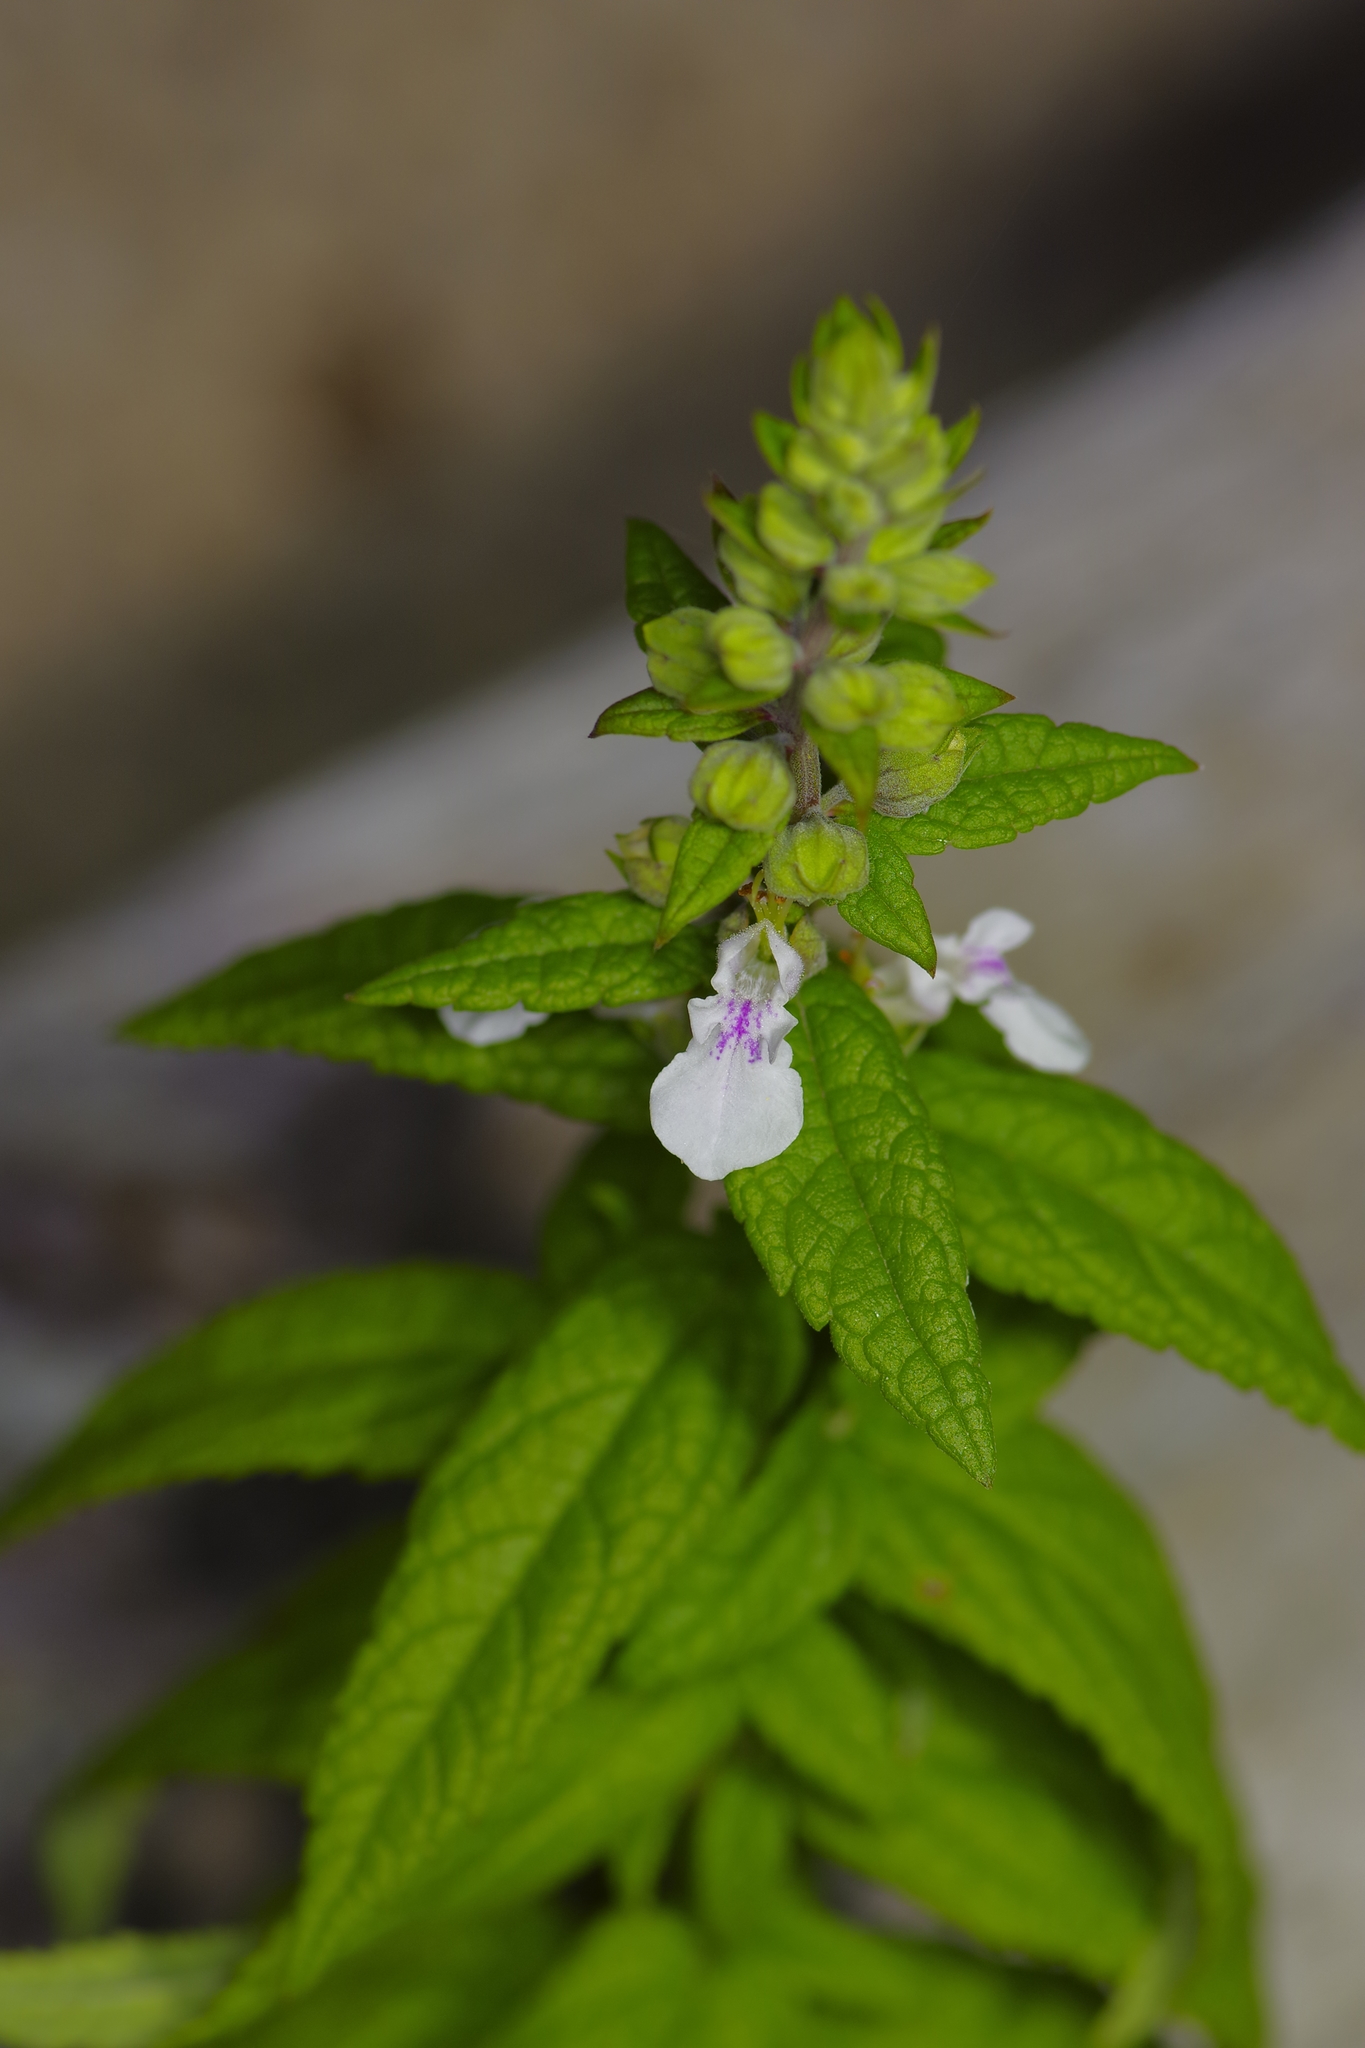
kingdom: Plantae
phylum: Tracheophyta
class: Magnoliopsida
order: Lamiales
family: Lamiaceae
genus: Teucrium
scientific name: Teucrium canadense
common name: American germander
